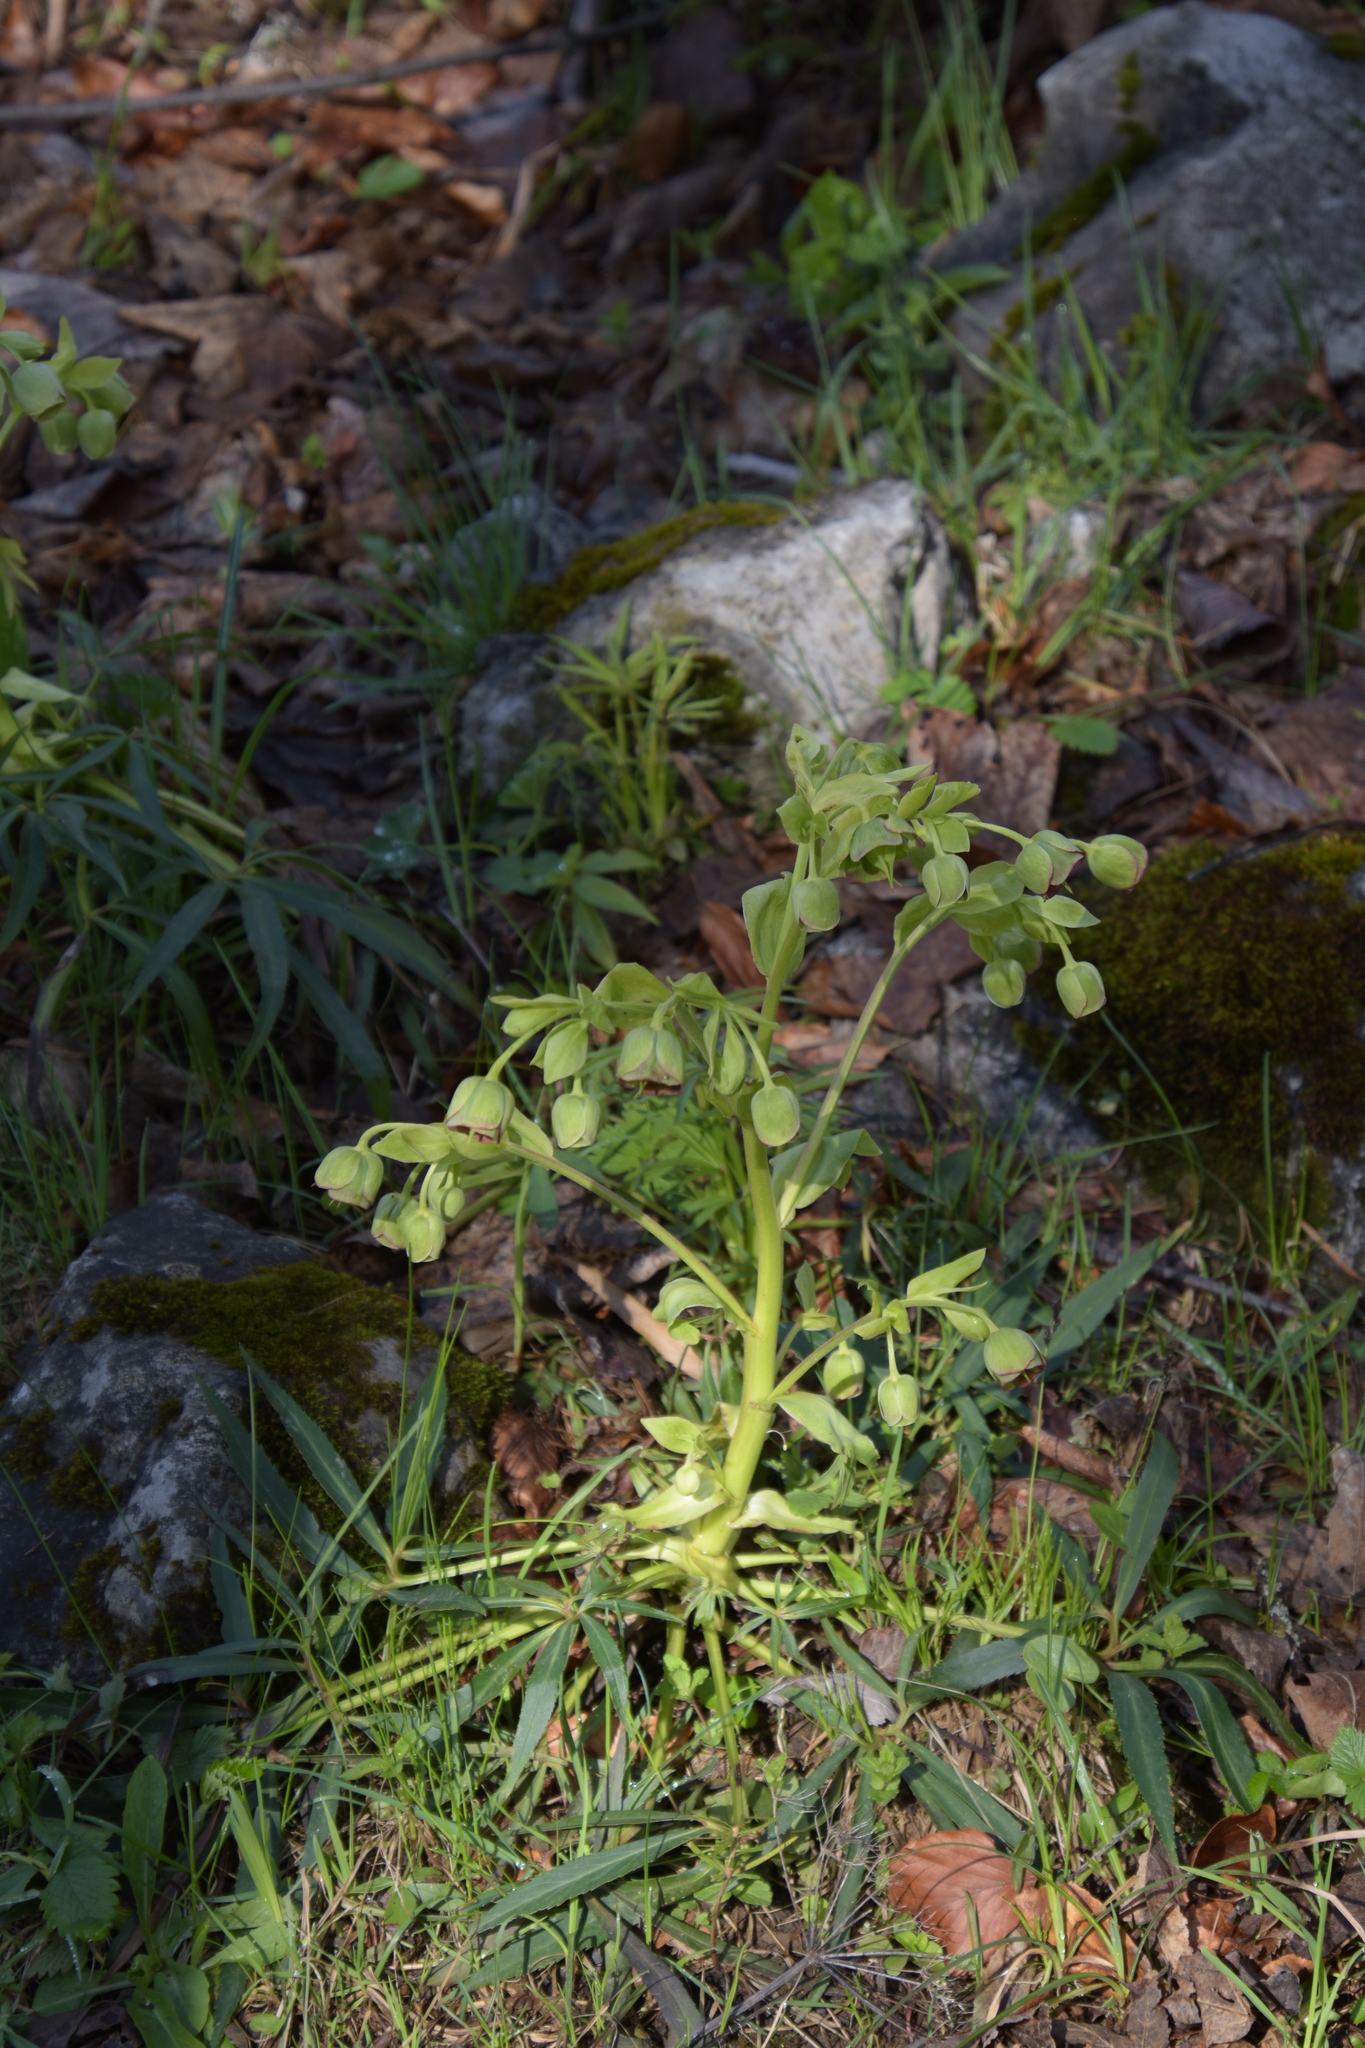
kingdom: Plantae
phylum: Tracheophyta
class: Magnoliopsida
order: Ranunculales
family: Ranunculaceae
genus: Helleborus
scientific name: Helleborus foetidus
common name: Stinking hellebore
